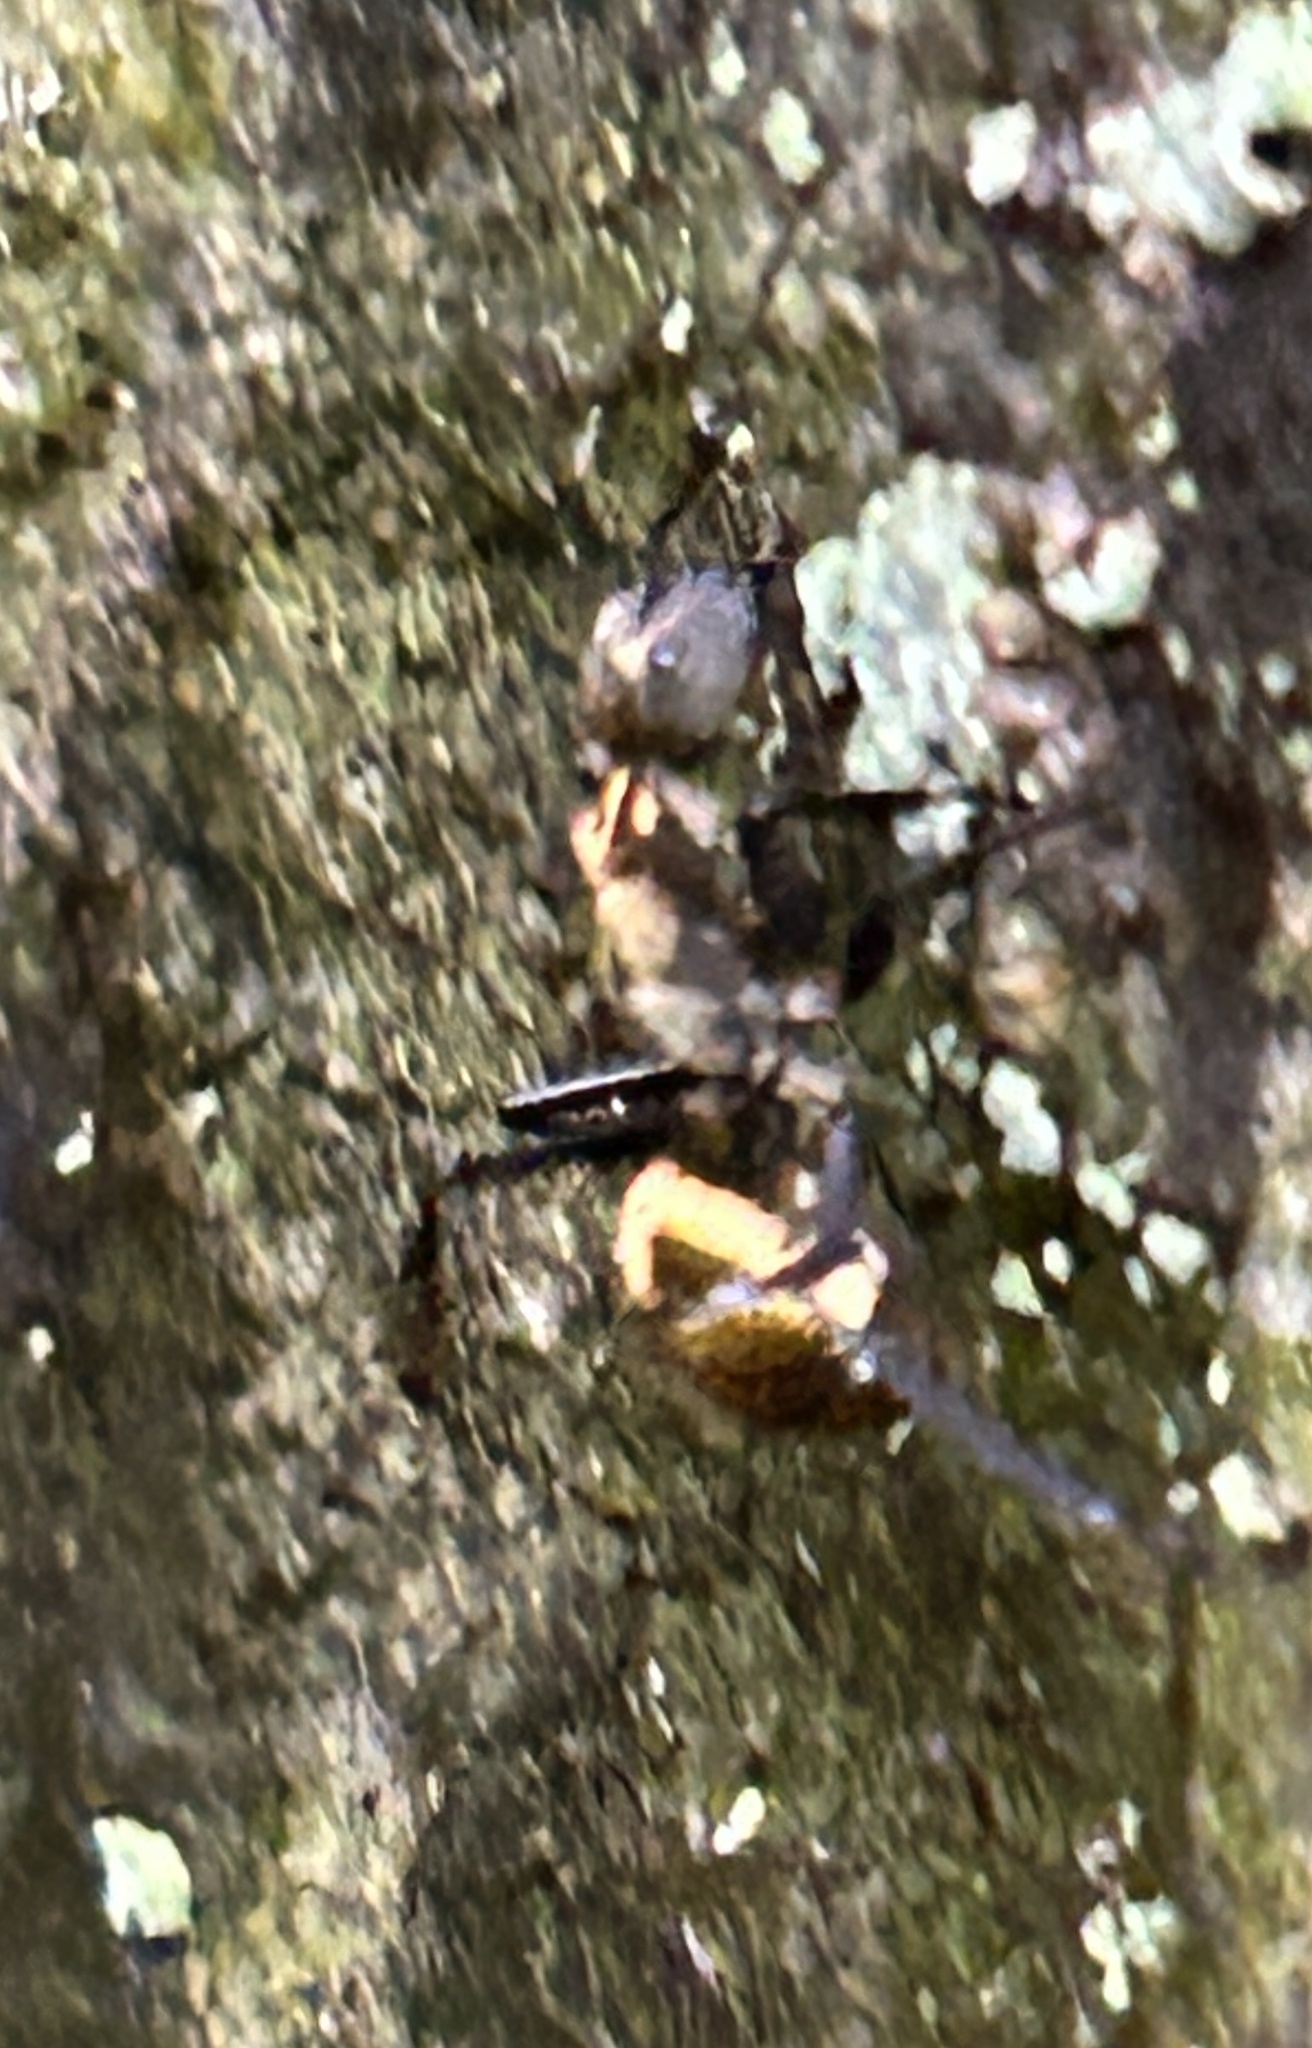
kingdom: Animalia
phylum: Arthropoda
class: Insecta
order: Hymenoptera
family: Formicidae
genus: Camponotus
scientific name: Camponotus sericeiventris
